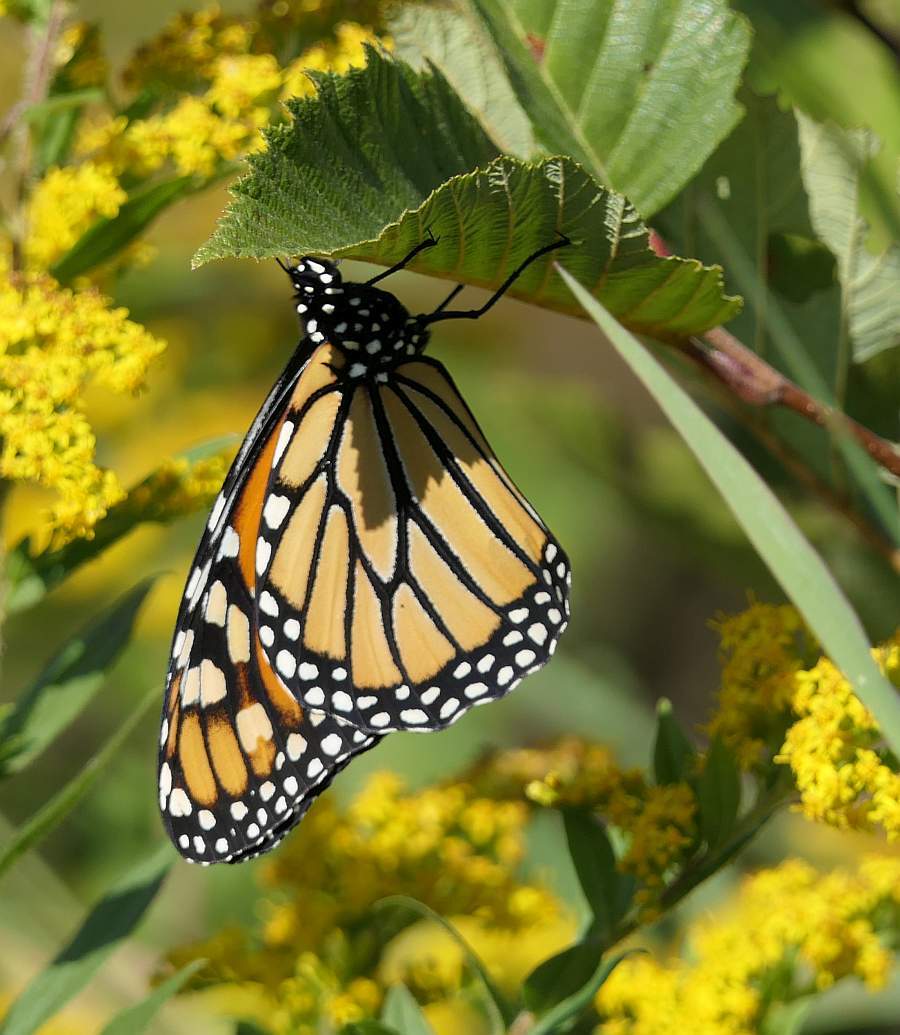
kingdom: Animalia
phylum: Arthropoda
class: Insecta
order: Lepidoptera
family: Nymphalidae
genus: Danaus
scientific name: Danaus plexippus
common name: Monarch
